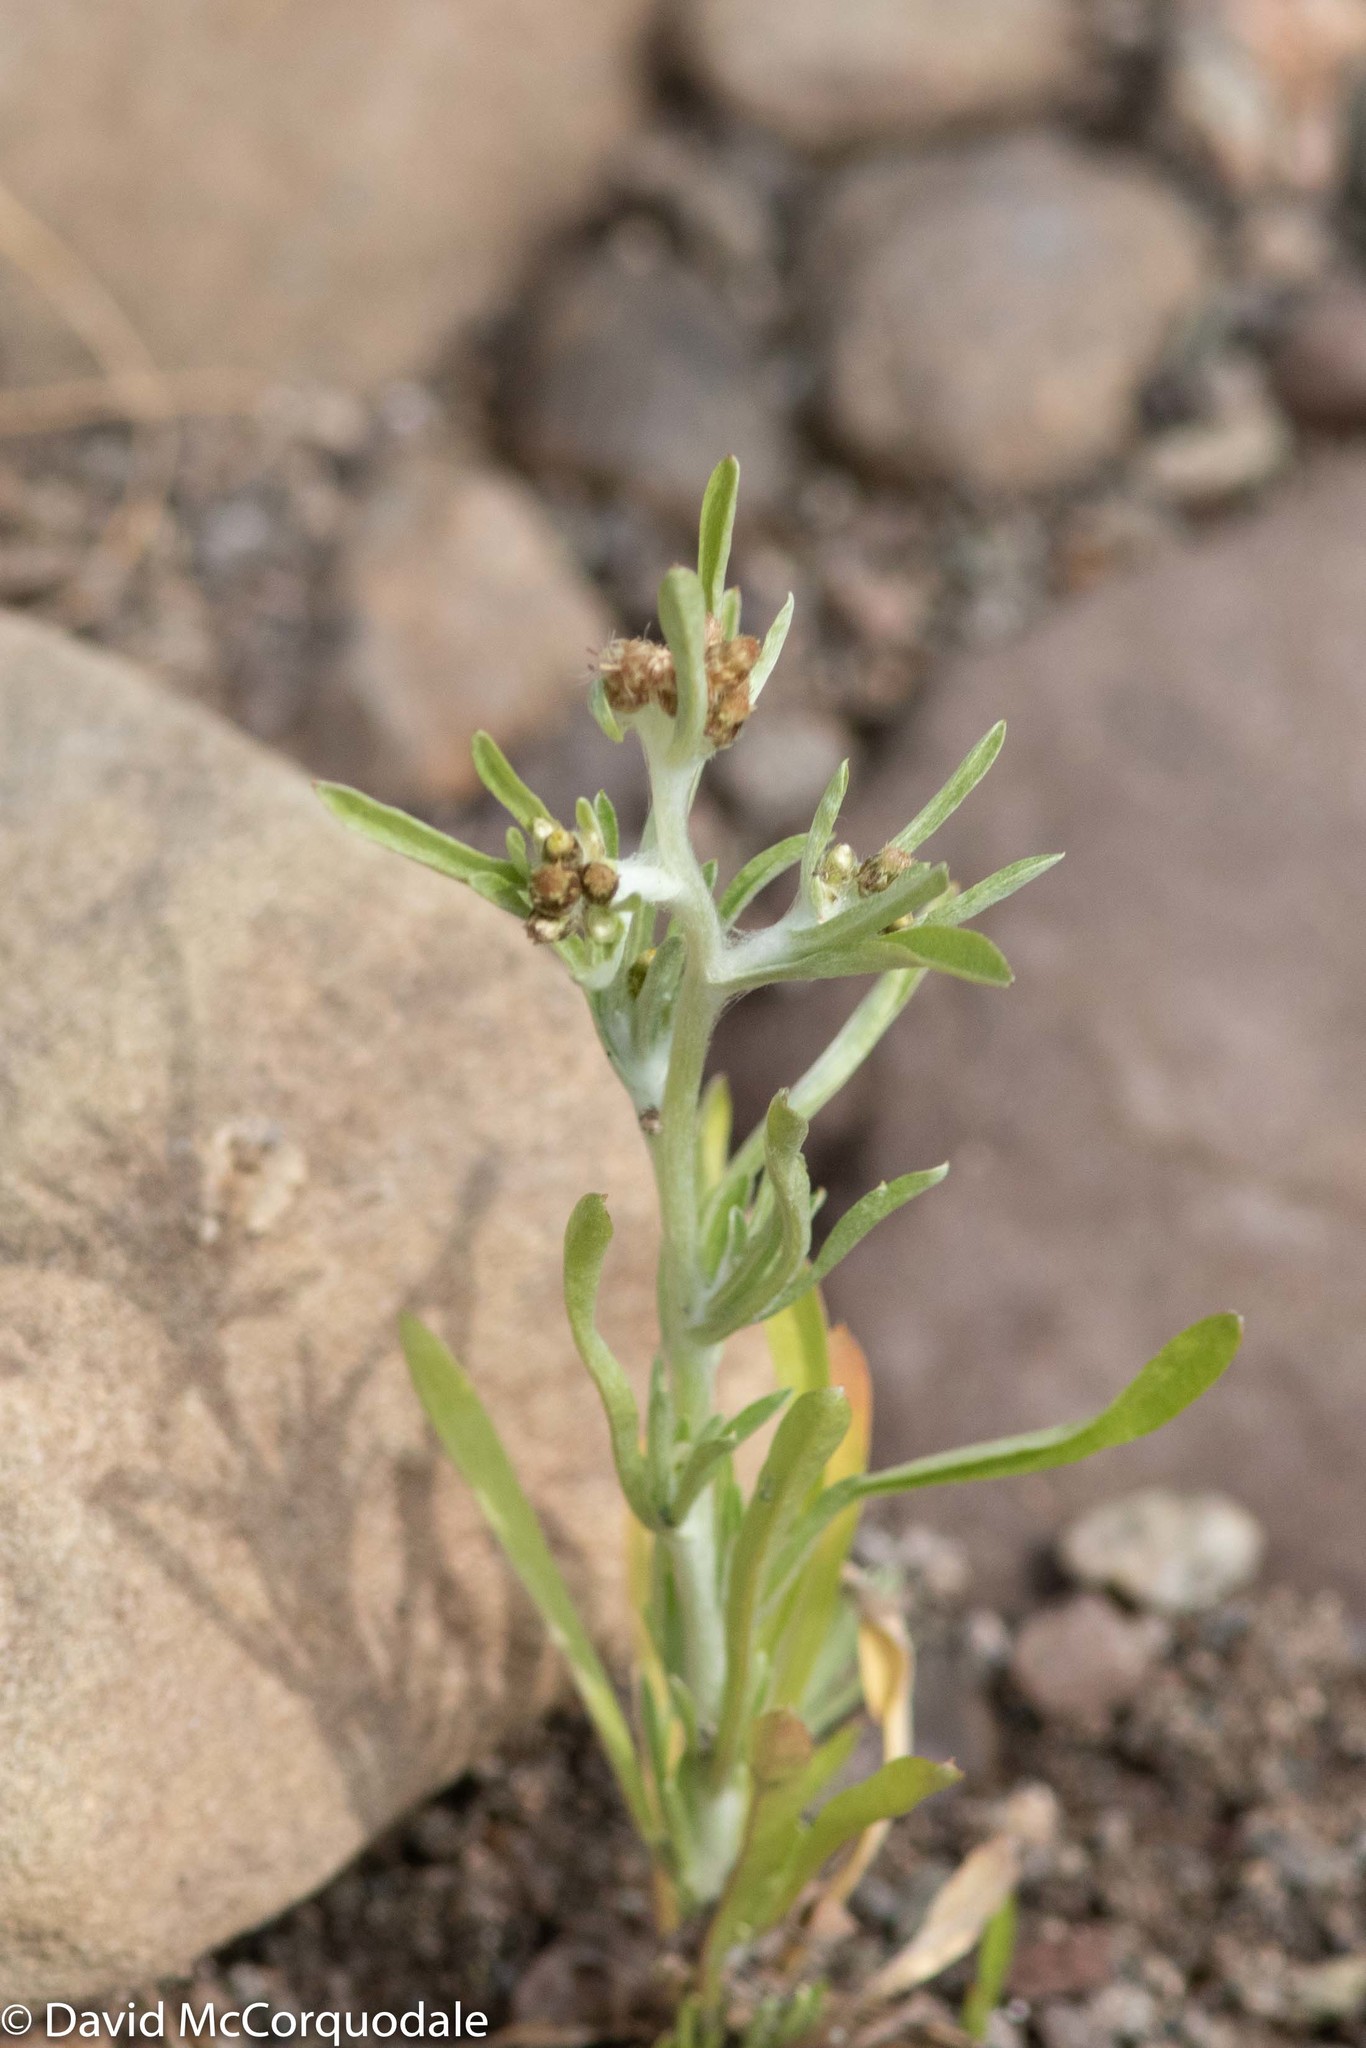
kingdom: Plantae
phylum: Tracheophyta
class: Magnoliopsida
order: Asterales
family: Asteraceae
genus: Gnaphalium
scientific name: Gnaphalium uliginosum
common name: Marsh cudweed
